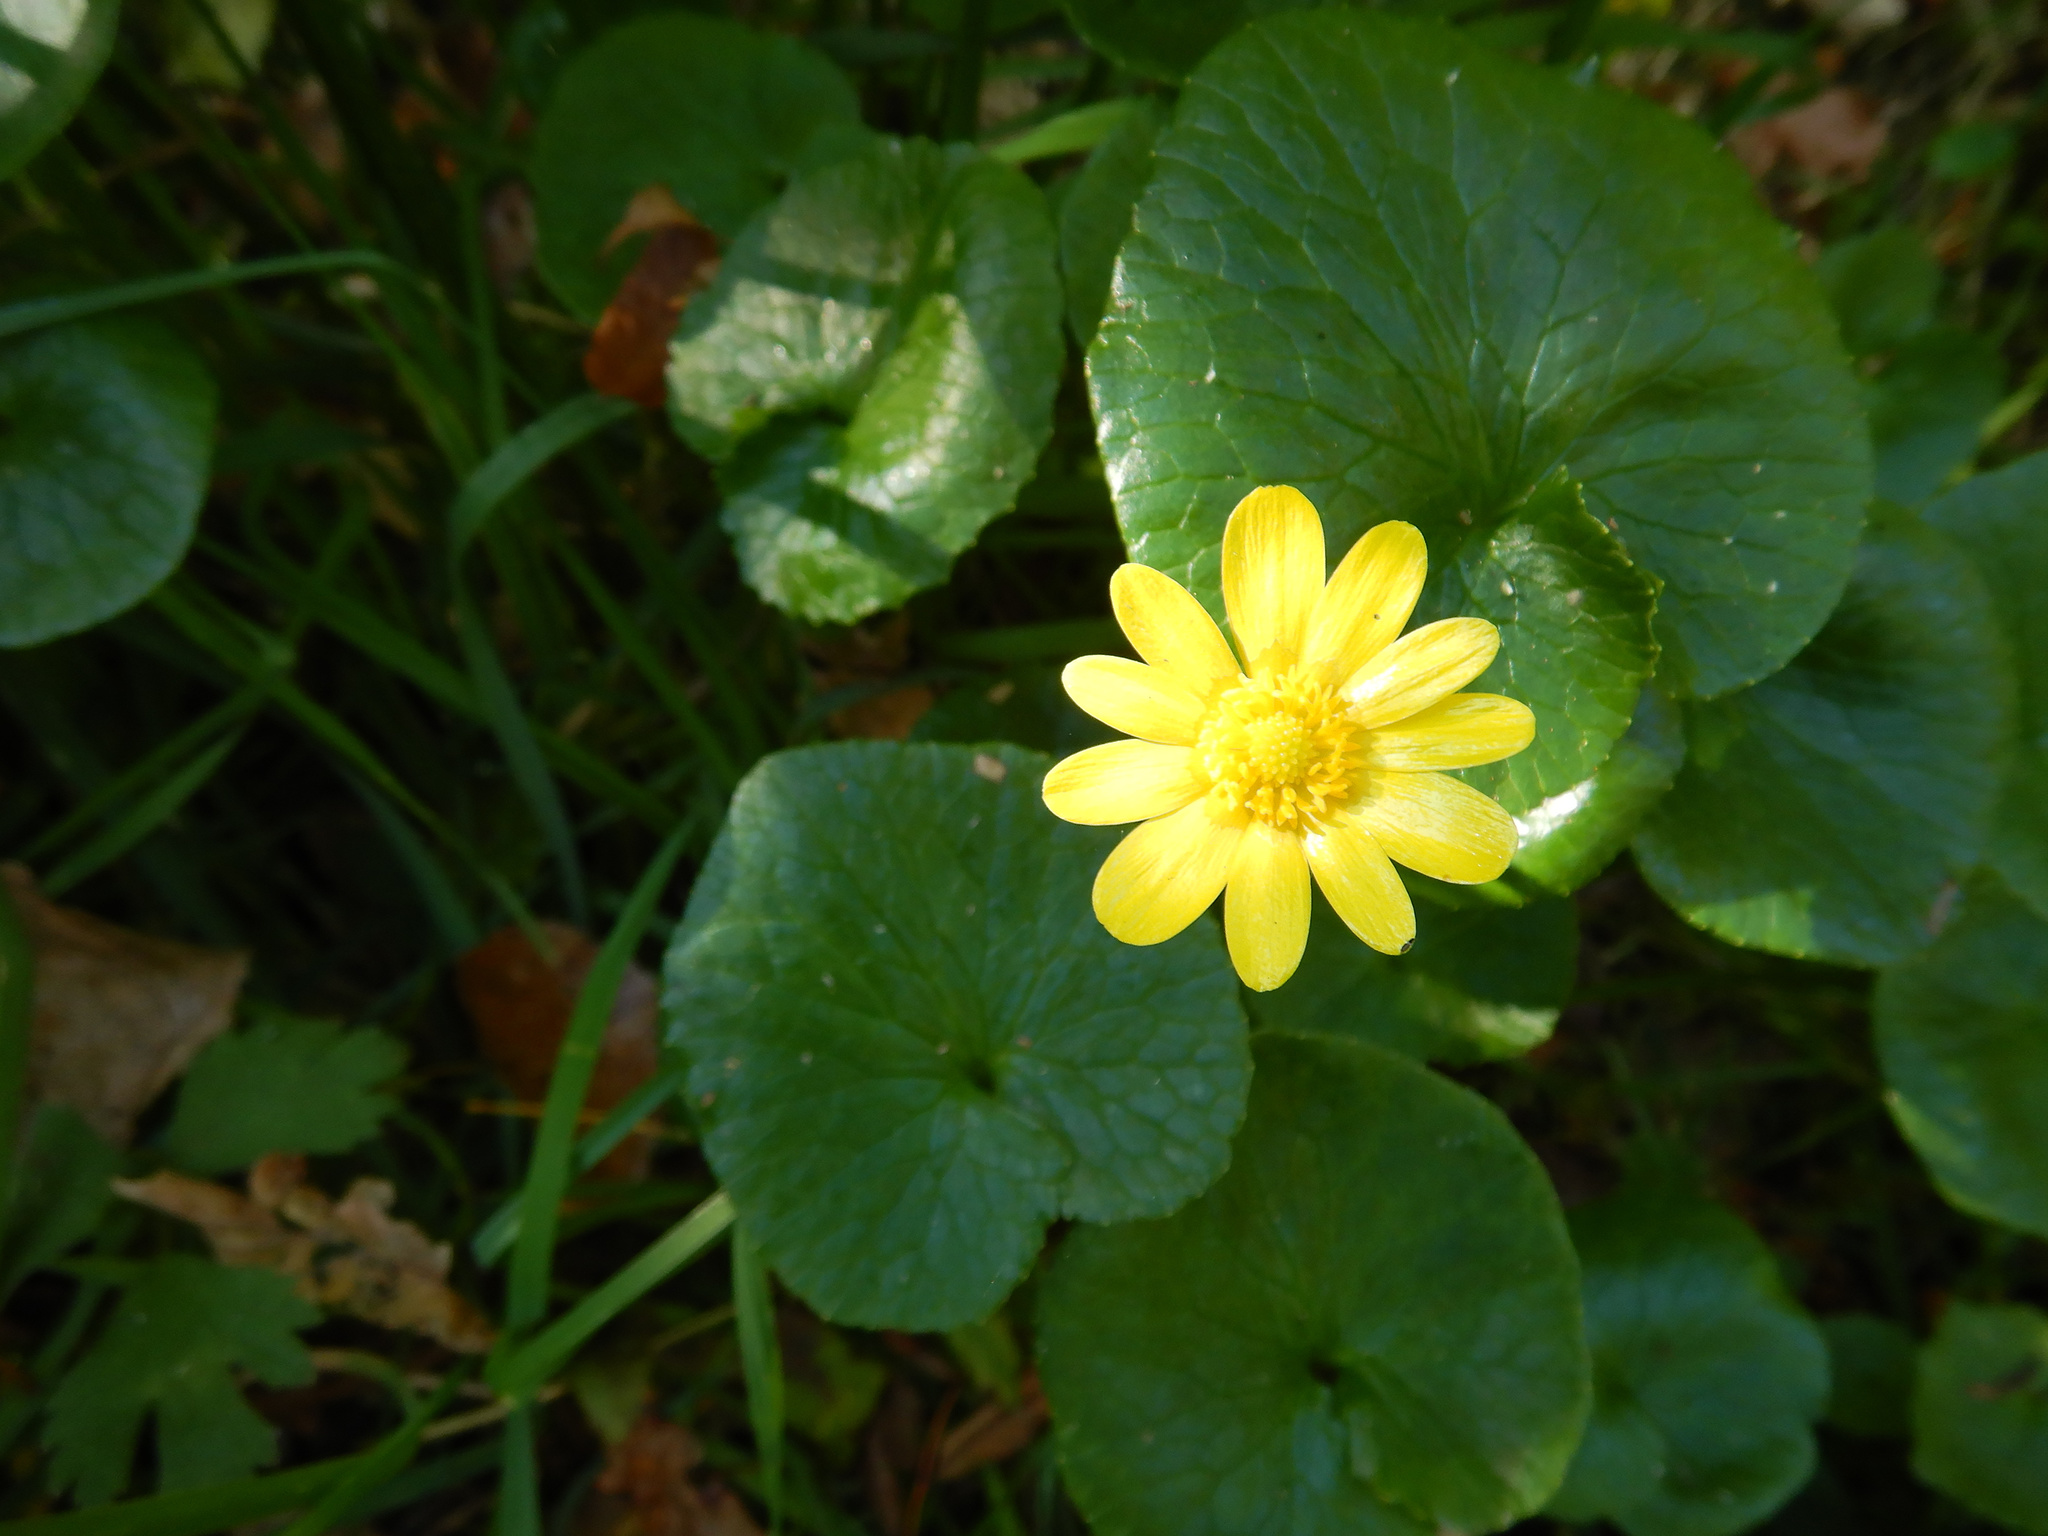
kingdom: Plantae
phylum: Tracheophyta
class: Magnoliopsida
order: Ranunculales
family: Ranunculaceae
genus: Ficaria
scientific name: Ficaria verna
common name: Lesser celandine
